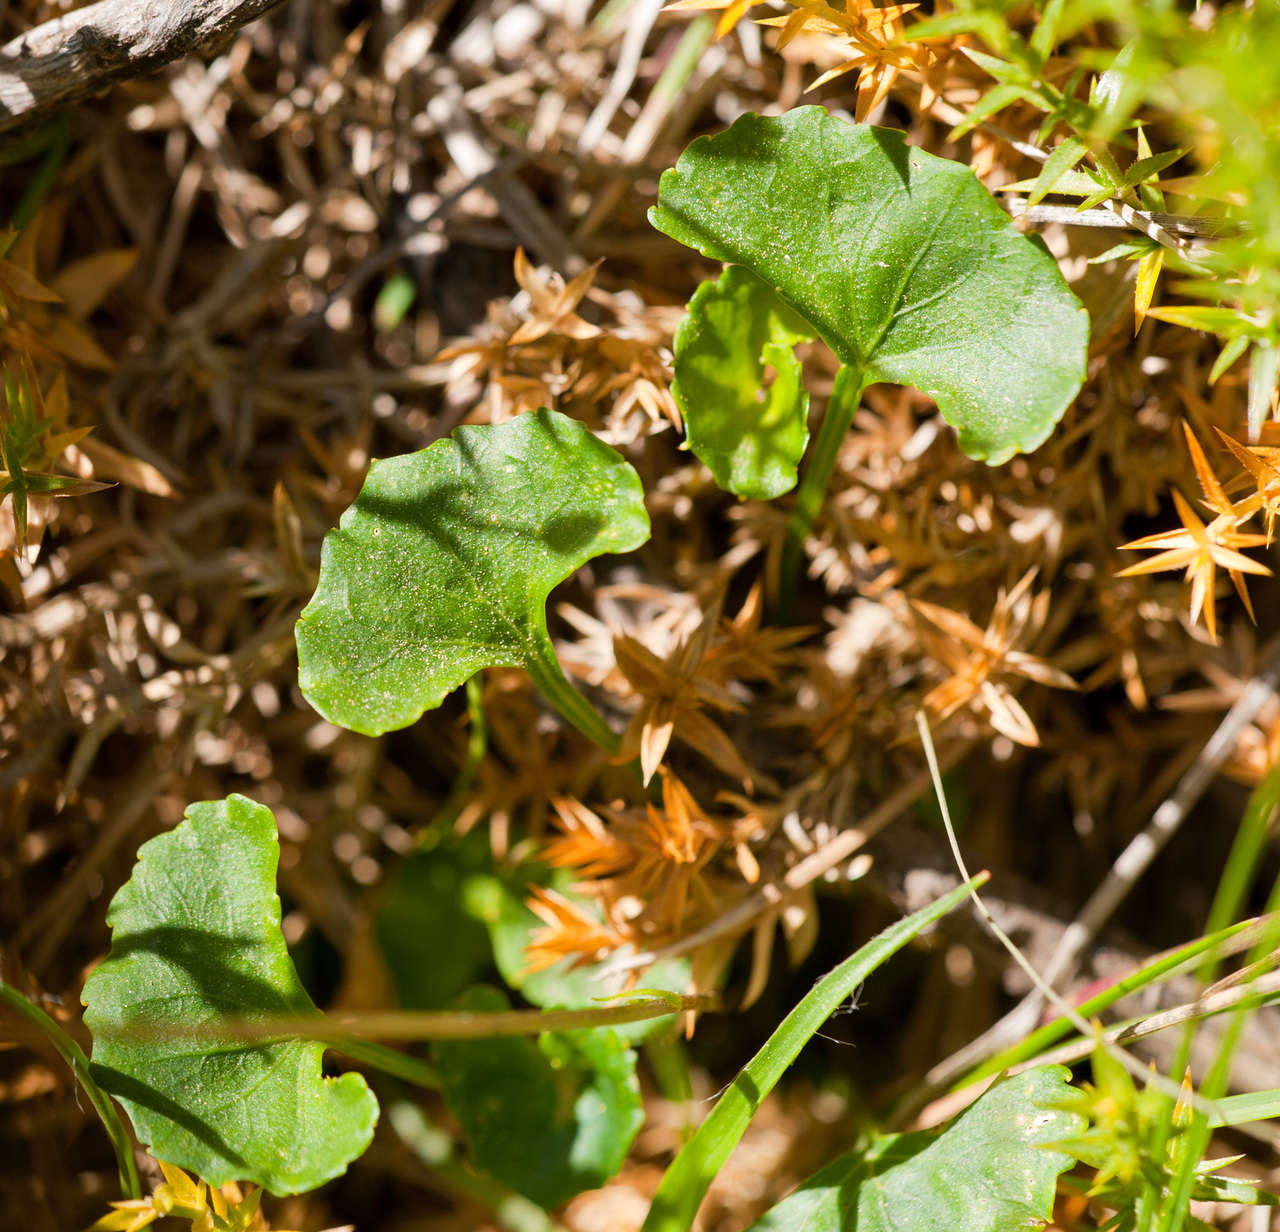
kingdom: Plantae
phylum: Tracheophyta
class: Magnoliopsida
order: Malpighiales
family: Violaceae
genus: Viola
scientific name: Viola eminens
